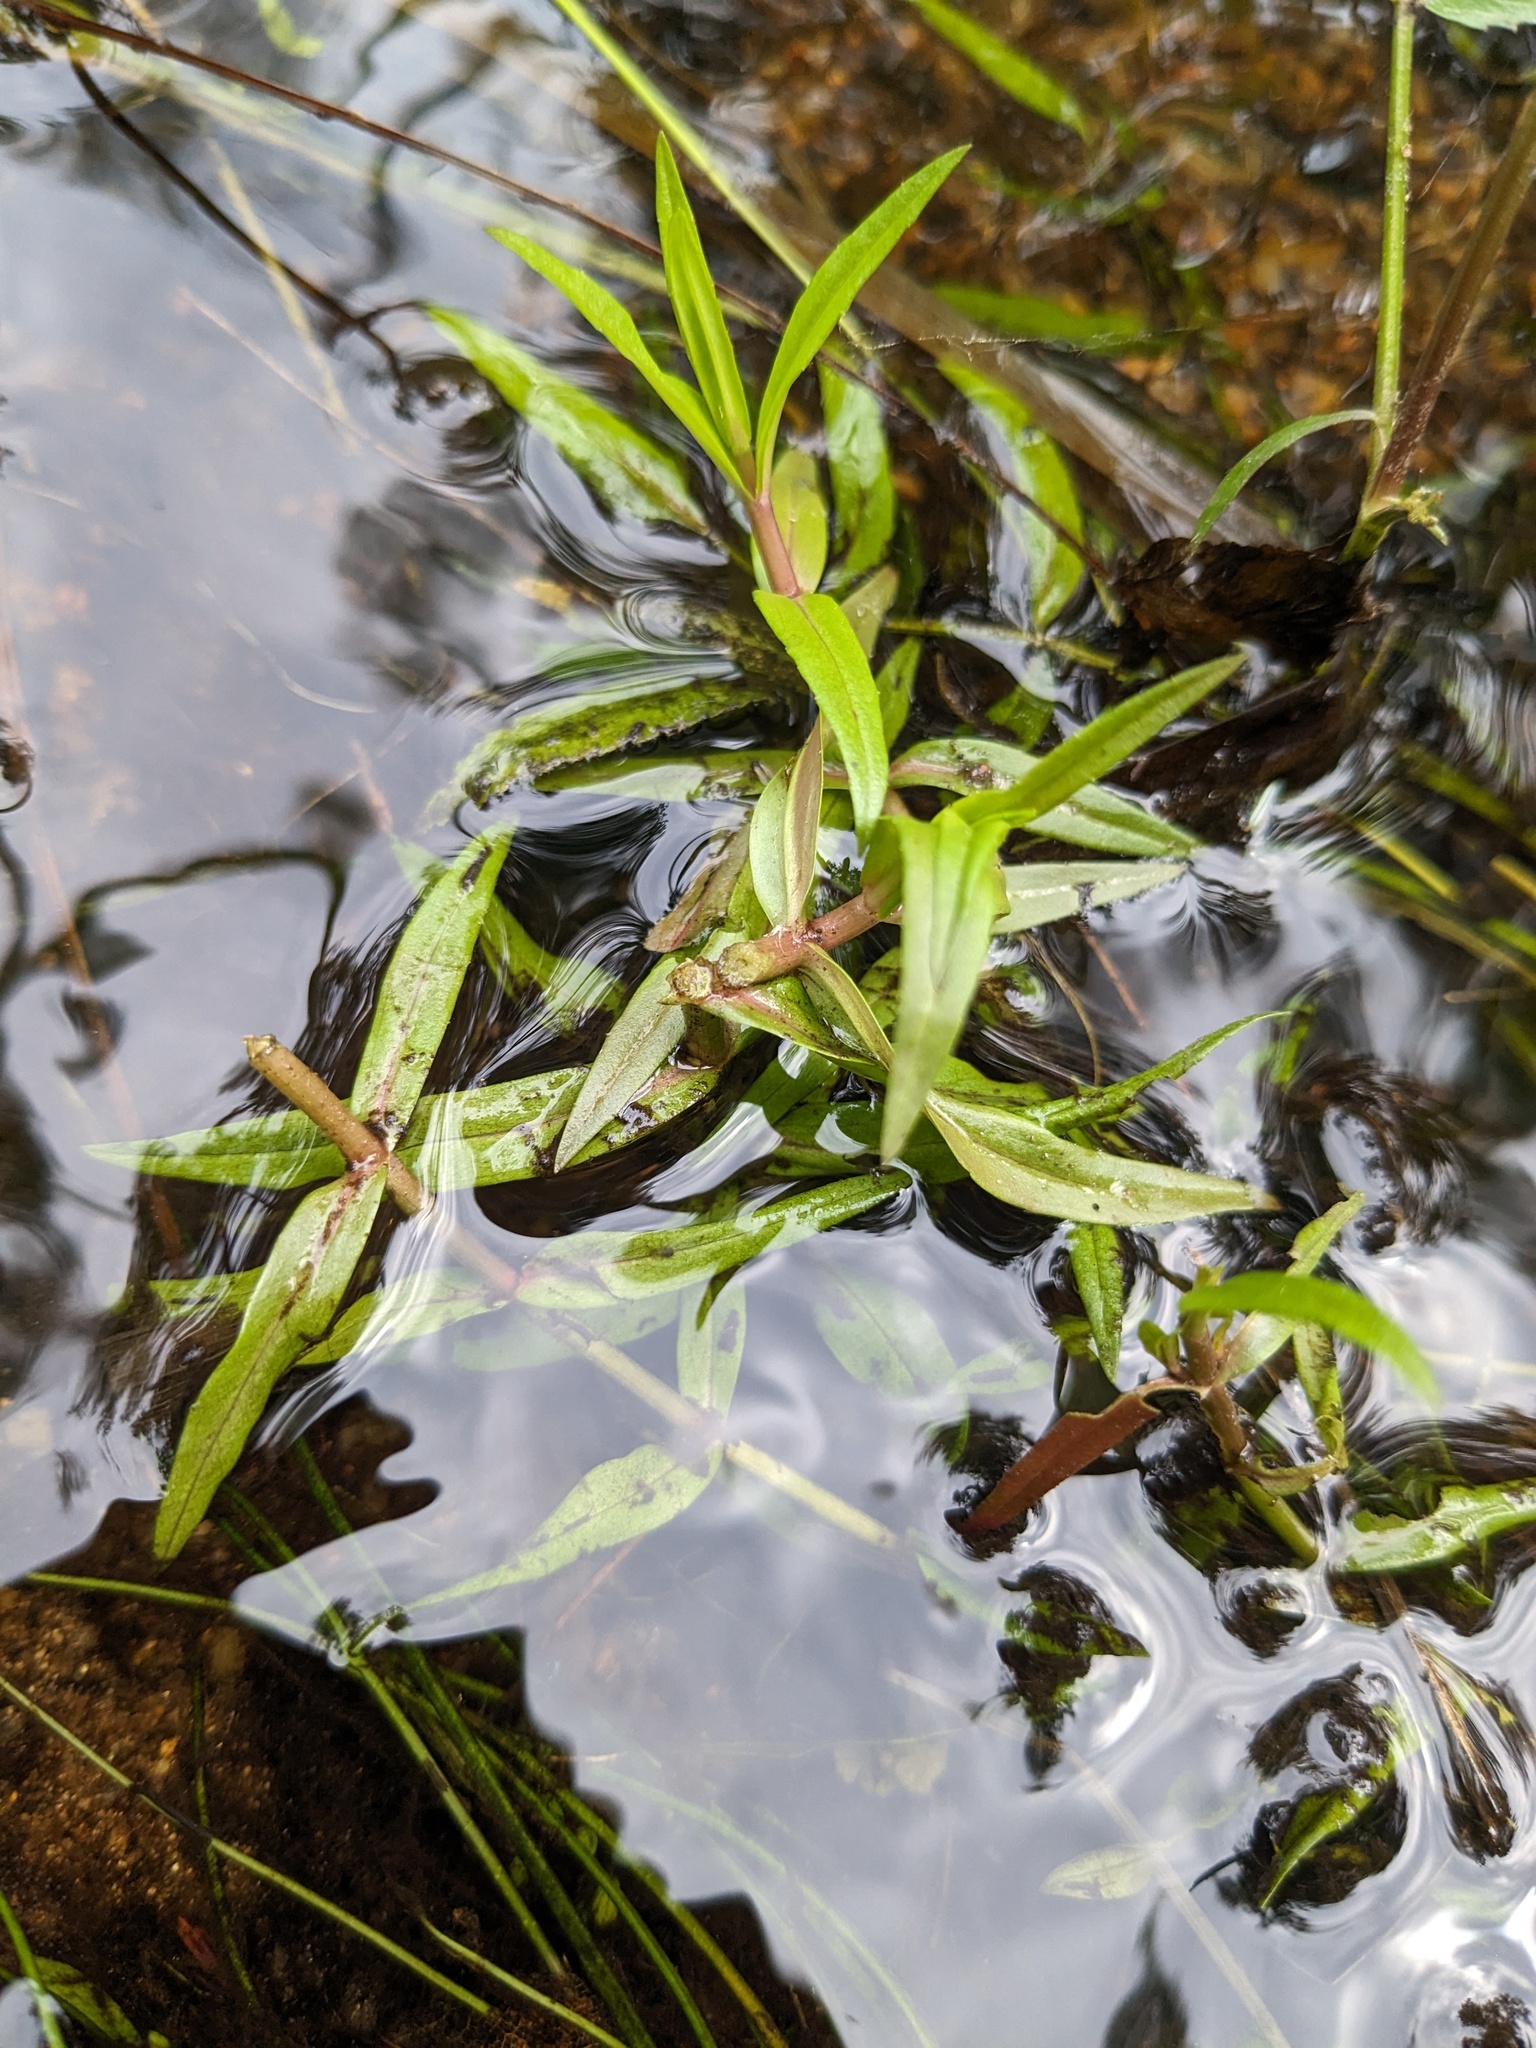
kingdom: Plantae
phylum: Tracheophyta
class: Magnoliopsida
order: Lamiales
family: Plantaginaceae
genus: Veronica
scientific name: Veronica scutellata
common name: Marsh speedwell
